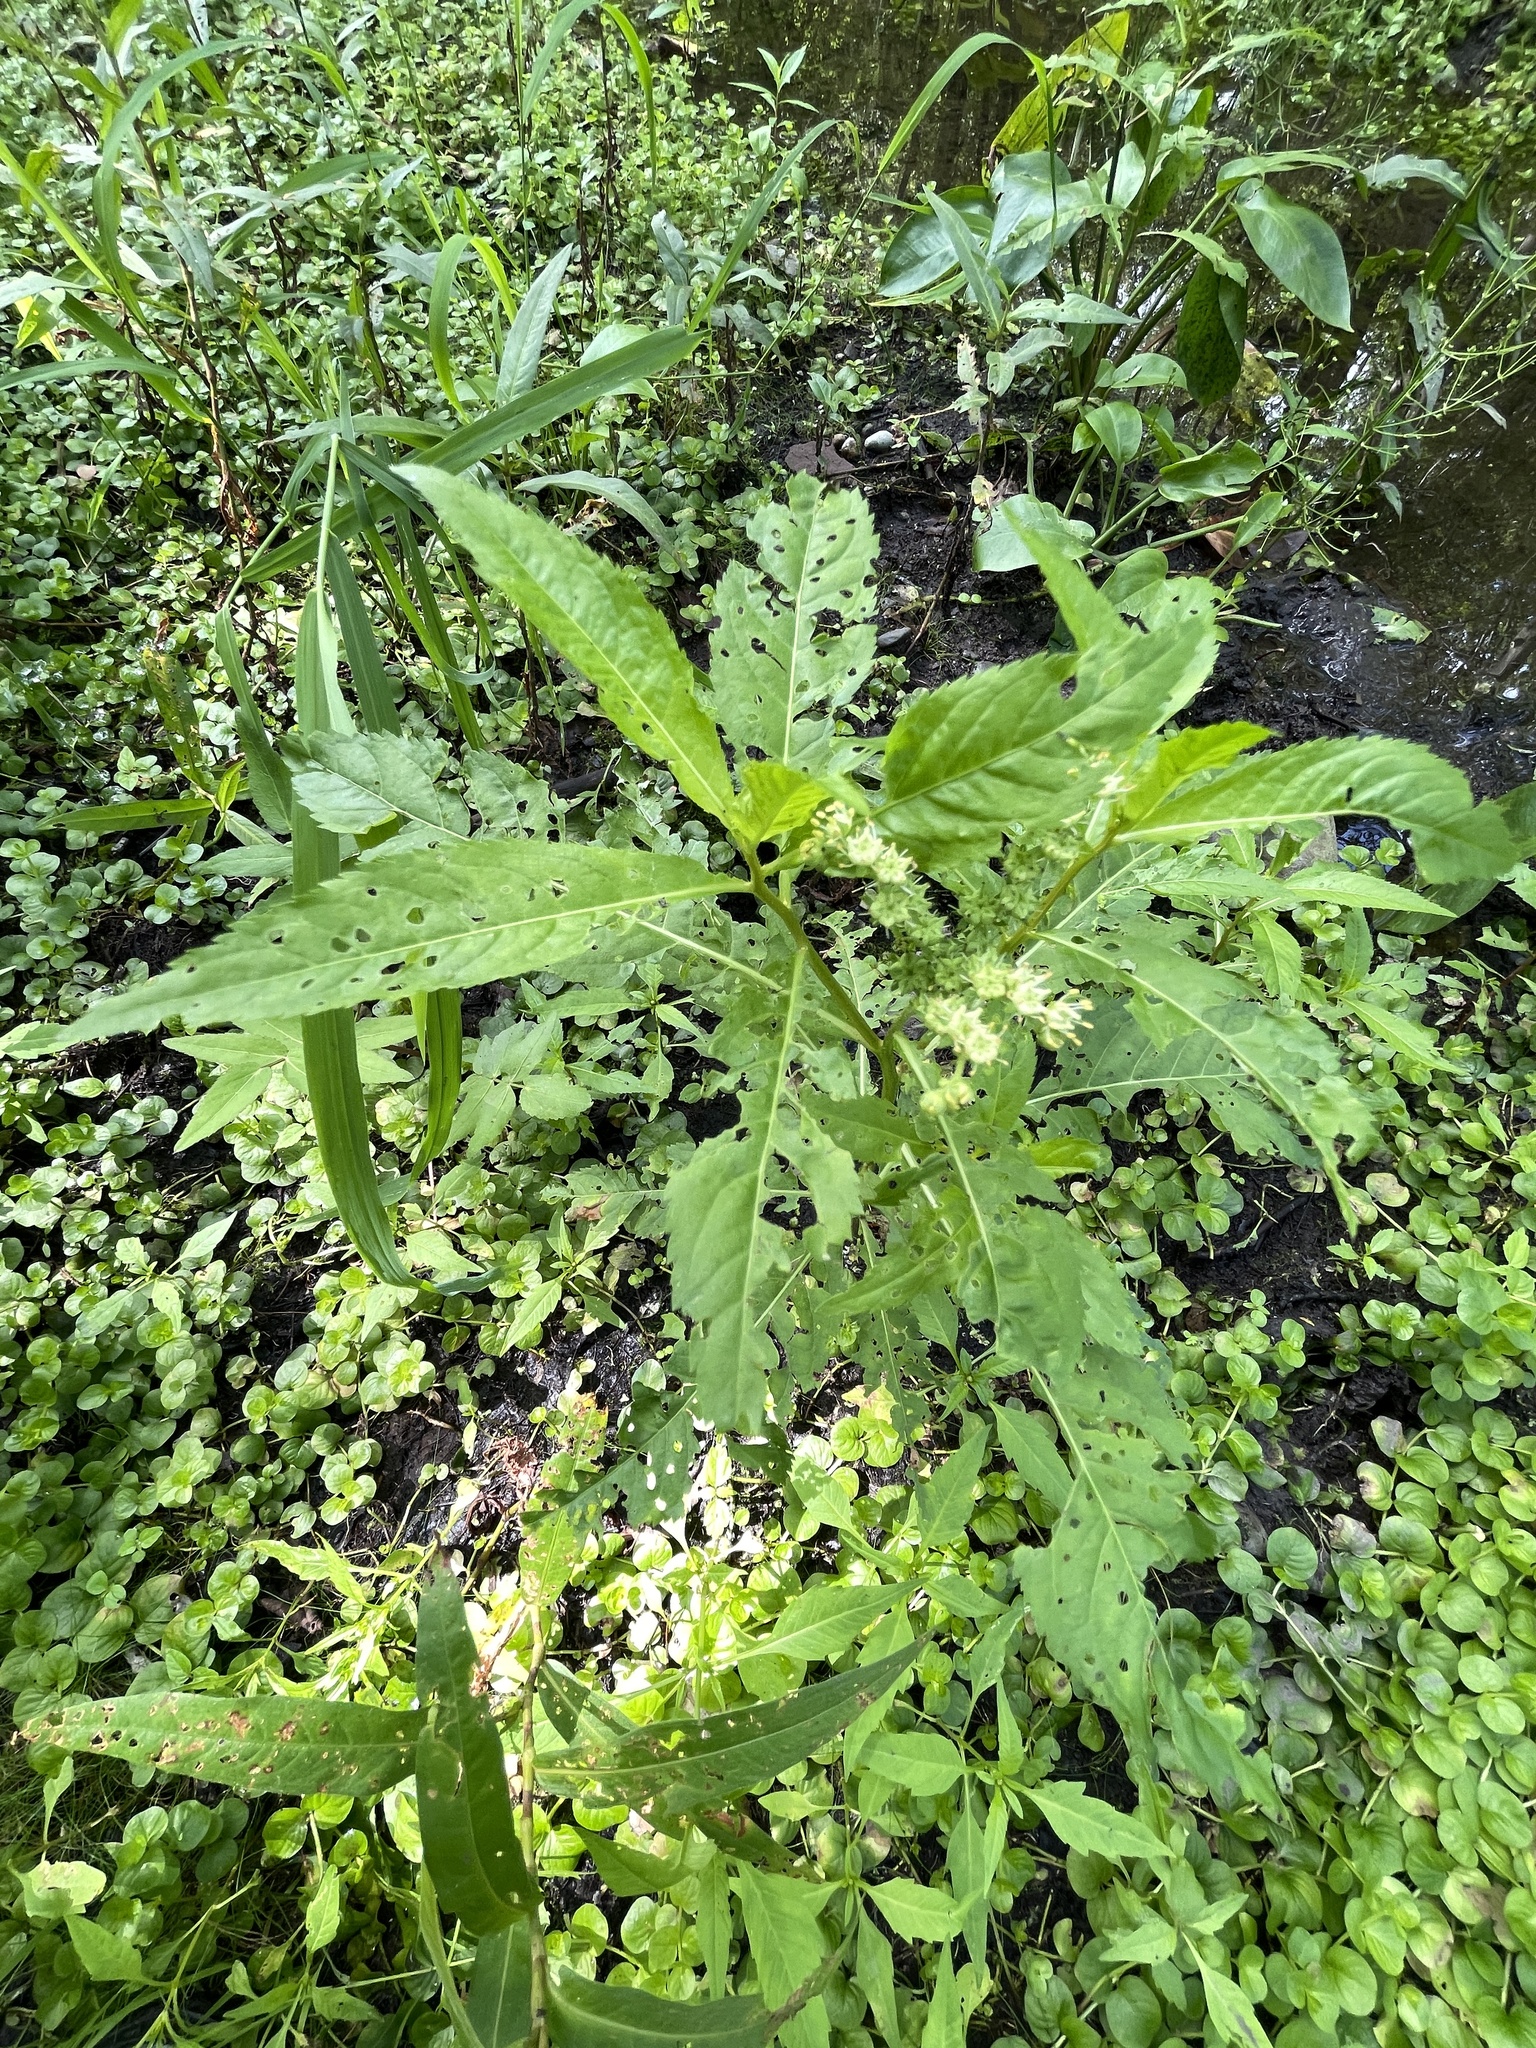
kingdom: Plantae
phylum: Tracheophyta
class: Magnoliopsida
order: Saxifragales
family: Penthoraceae
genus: Penthorum
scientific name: Penthorum sedoides
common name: Ditch stonecrop
